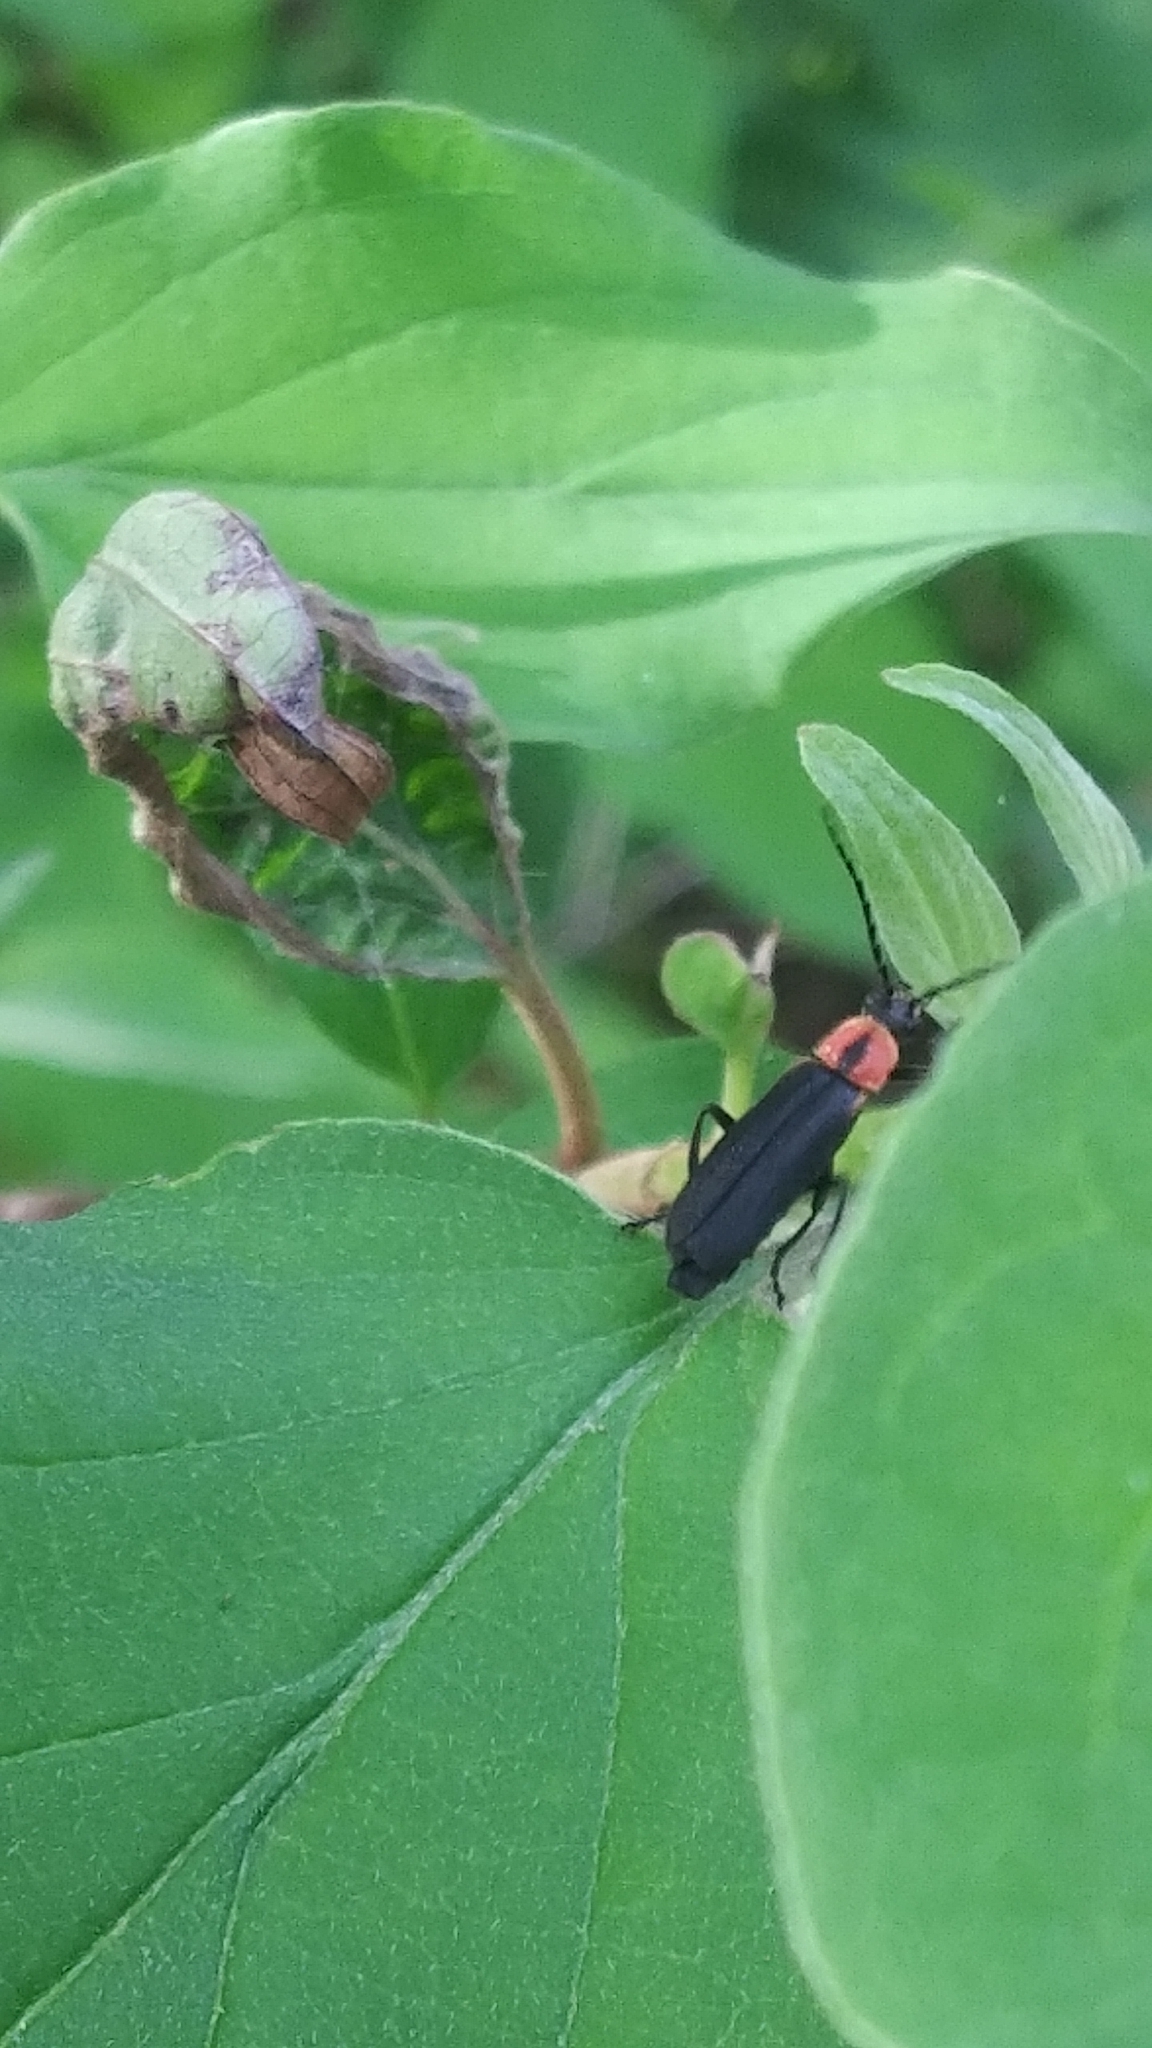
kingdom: Animalia
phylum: Arthropoda
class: Insecta
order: Coleoptera
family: Cantharidae
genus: Discodon
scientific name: Discodon planicolle
